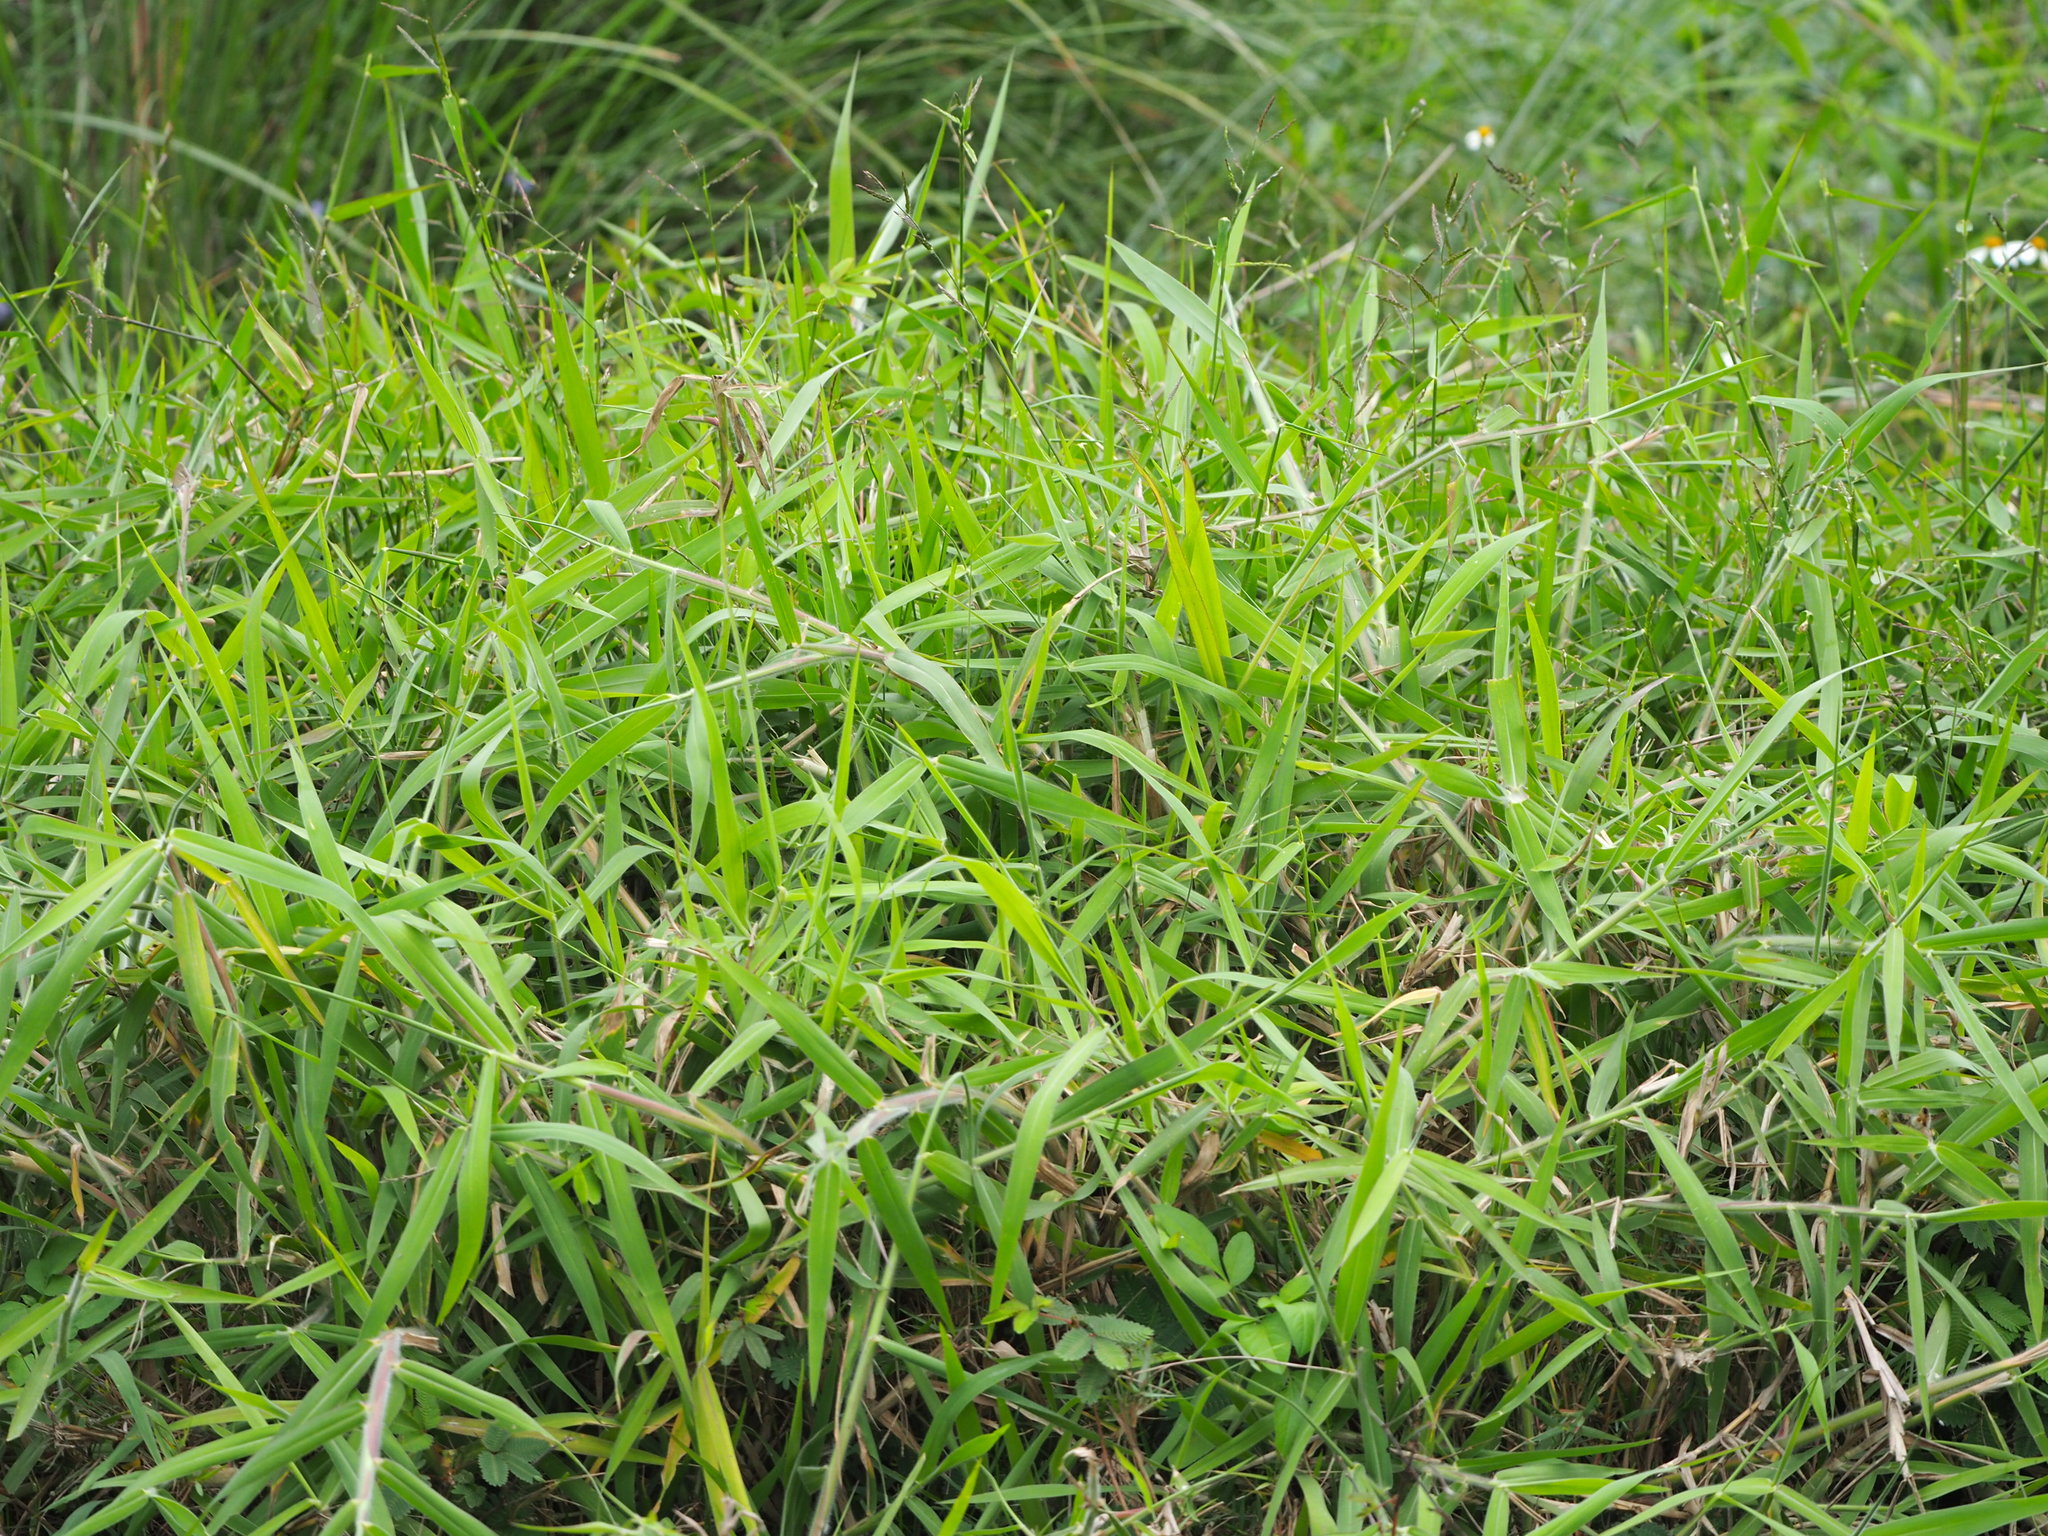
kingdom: Plantae
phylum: Tracheophyta
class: Liliopsida
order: Poales
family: Poaceae
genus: Urochloa
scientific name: Urochloa mutica
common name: Para grass
